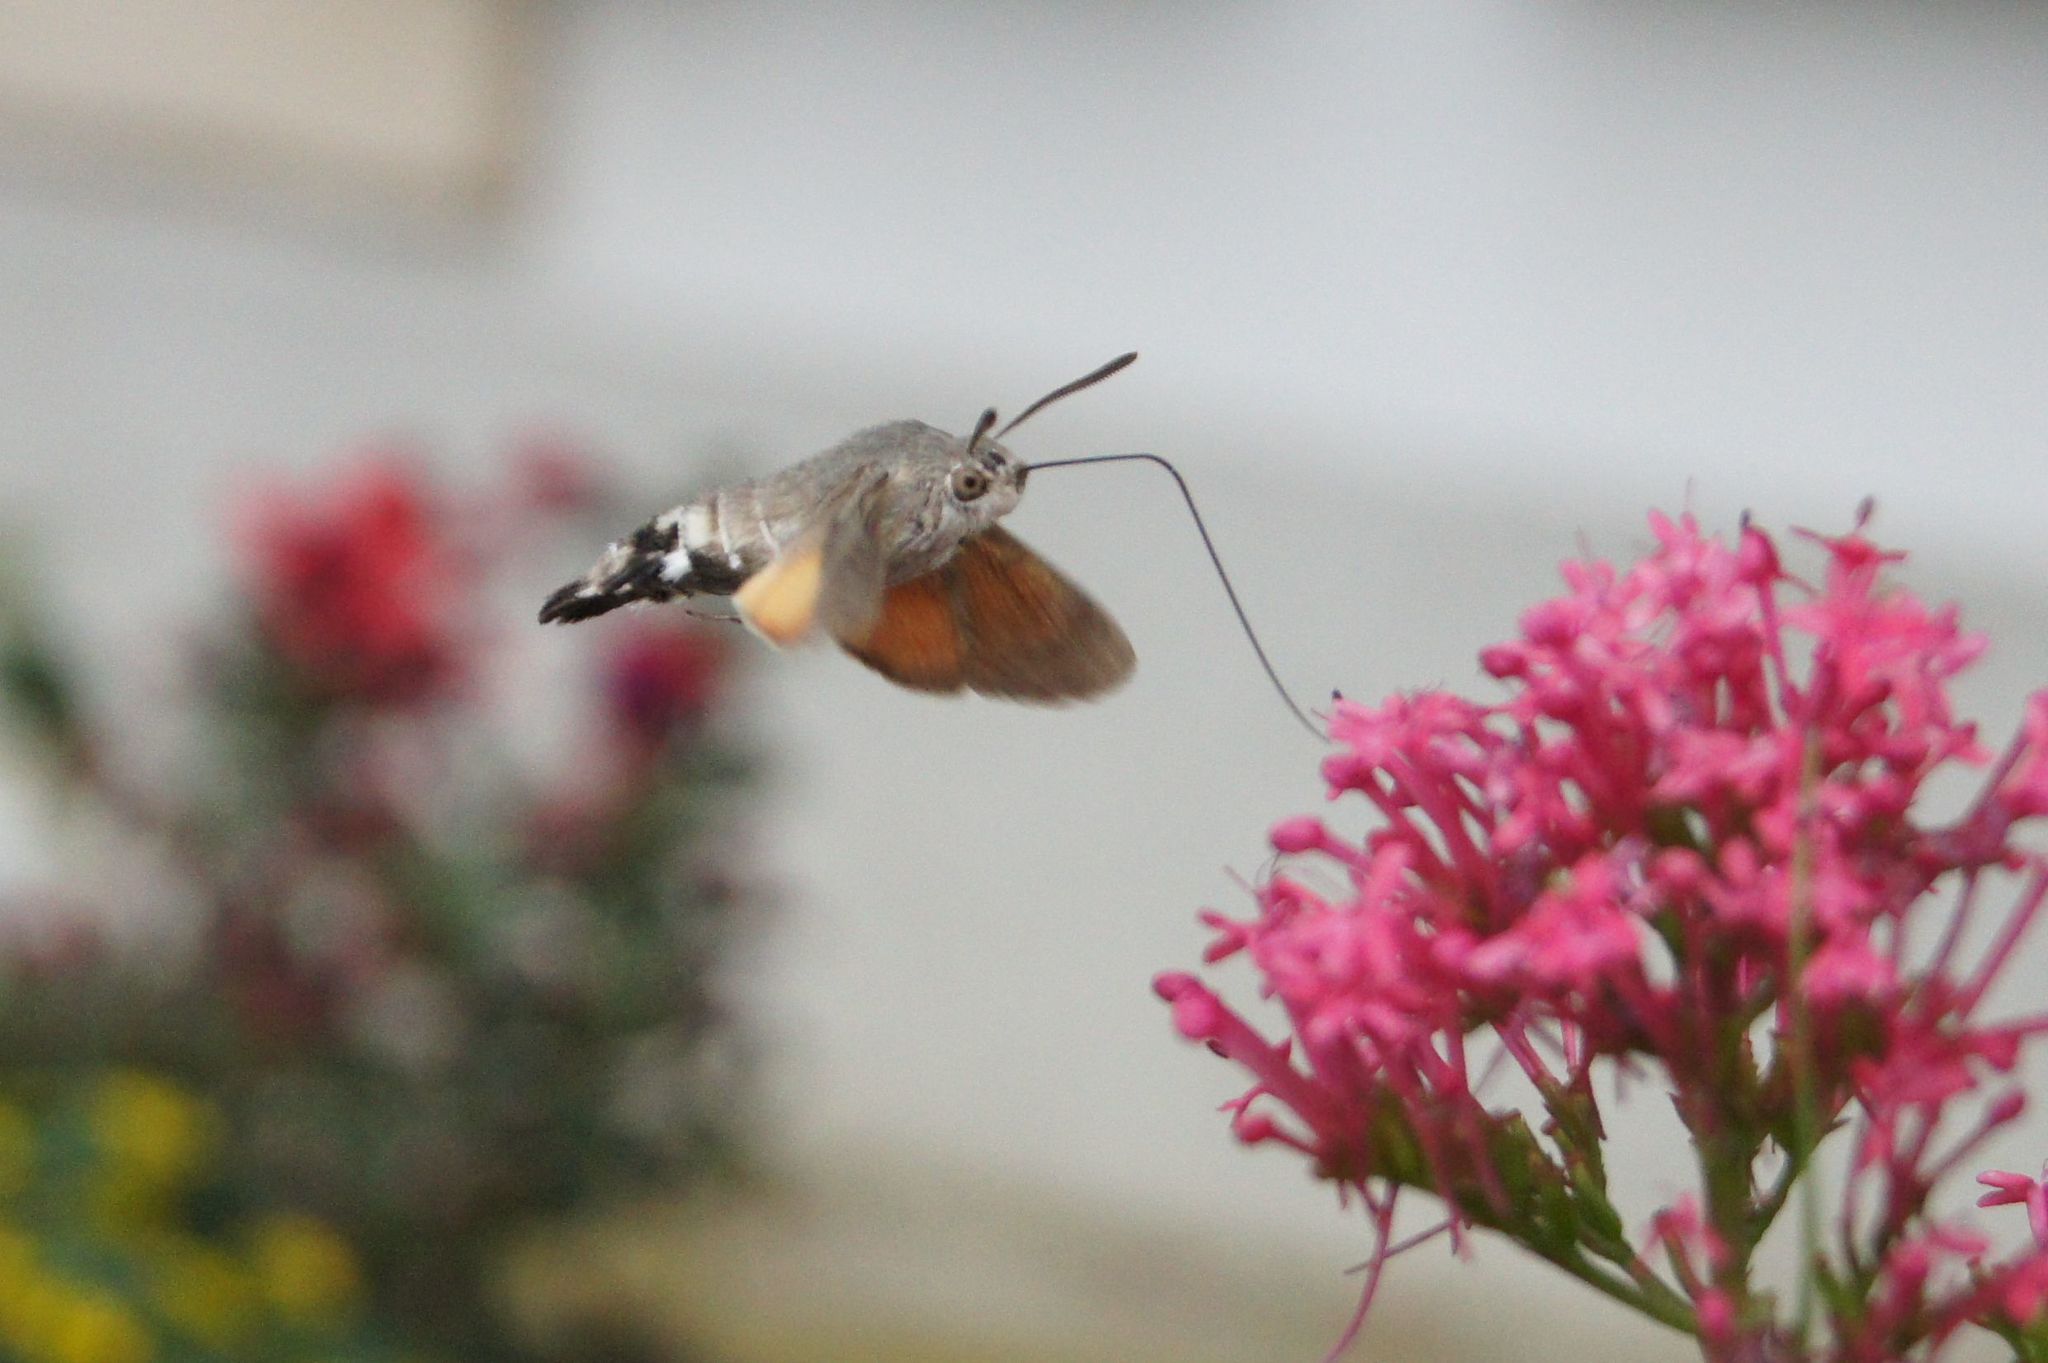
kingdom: Animalia
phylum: Arthropoda
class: Insecta
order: Lepidoptera
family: Sphingidae
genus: Macroglossum
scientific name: Macroglossum stellatarum
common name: Humming-bird hawk-moth
